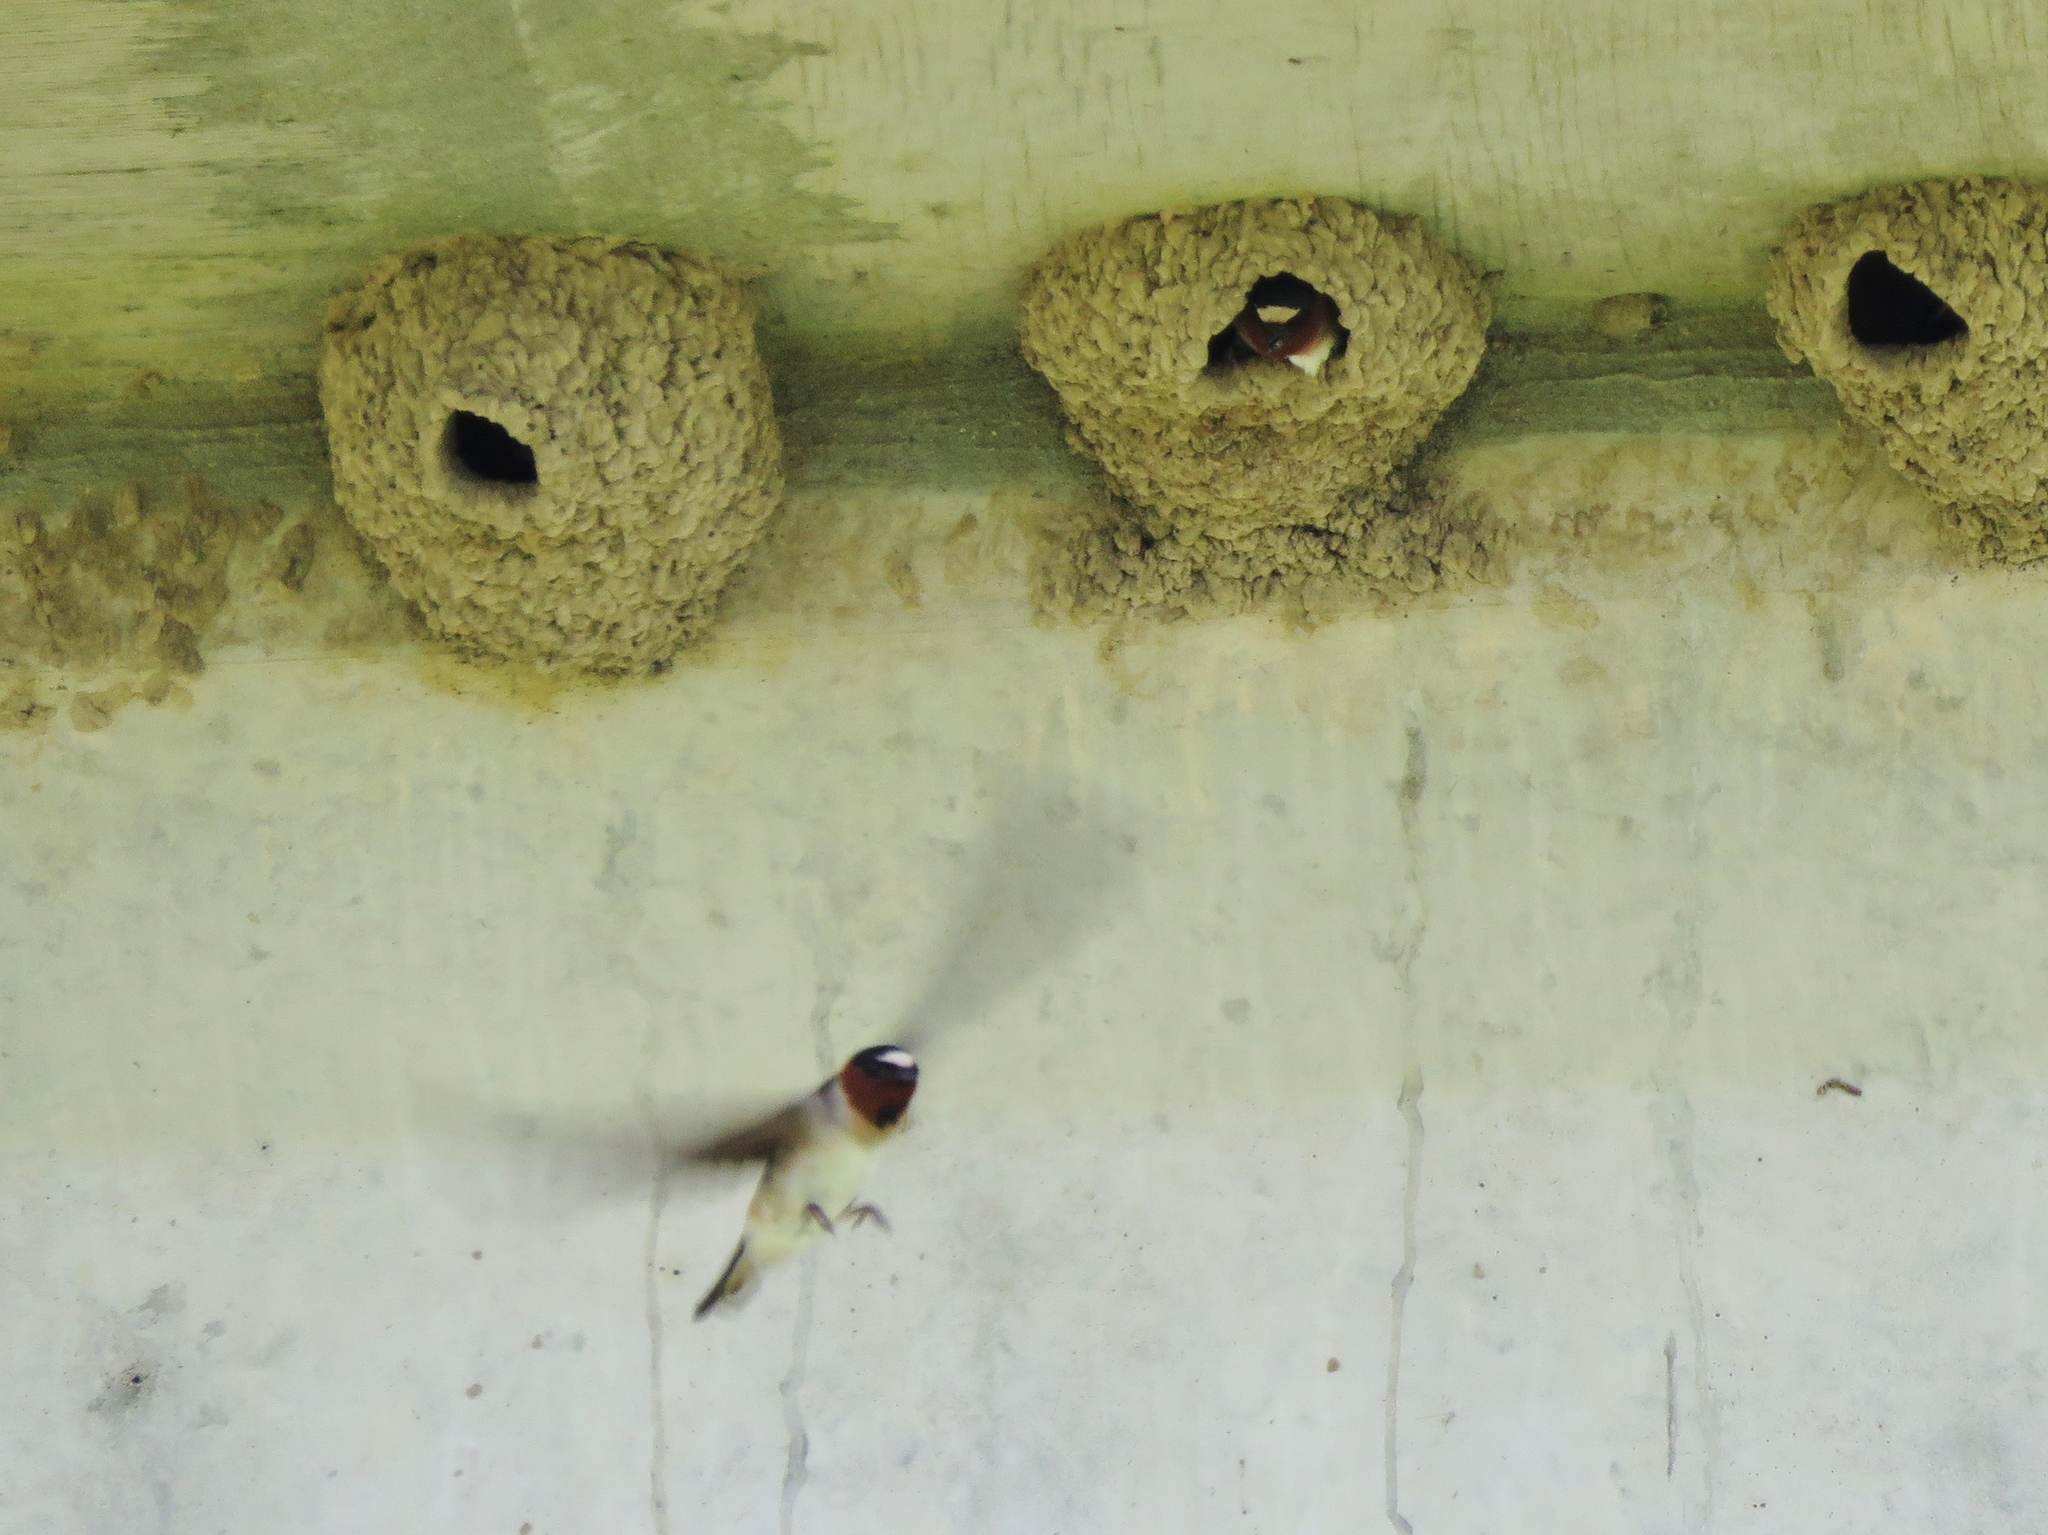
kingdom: Animalia
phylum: Chordata
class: Aves
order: Passeriformes
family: Hirundinidae
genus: Petrochelidon
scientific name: Petrochelidon pyrrhonota
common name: American cliff swallow
